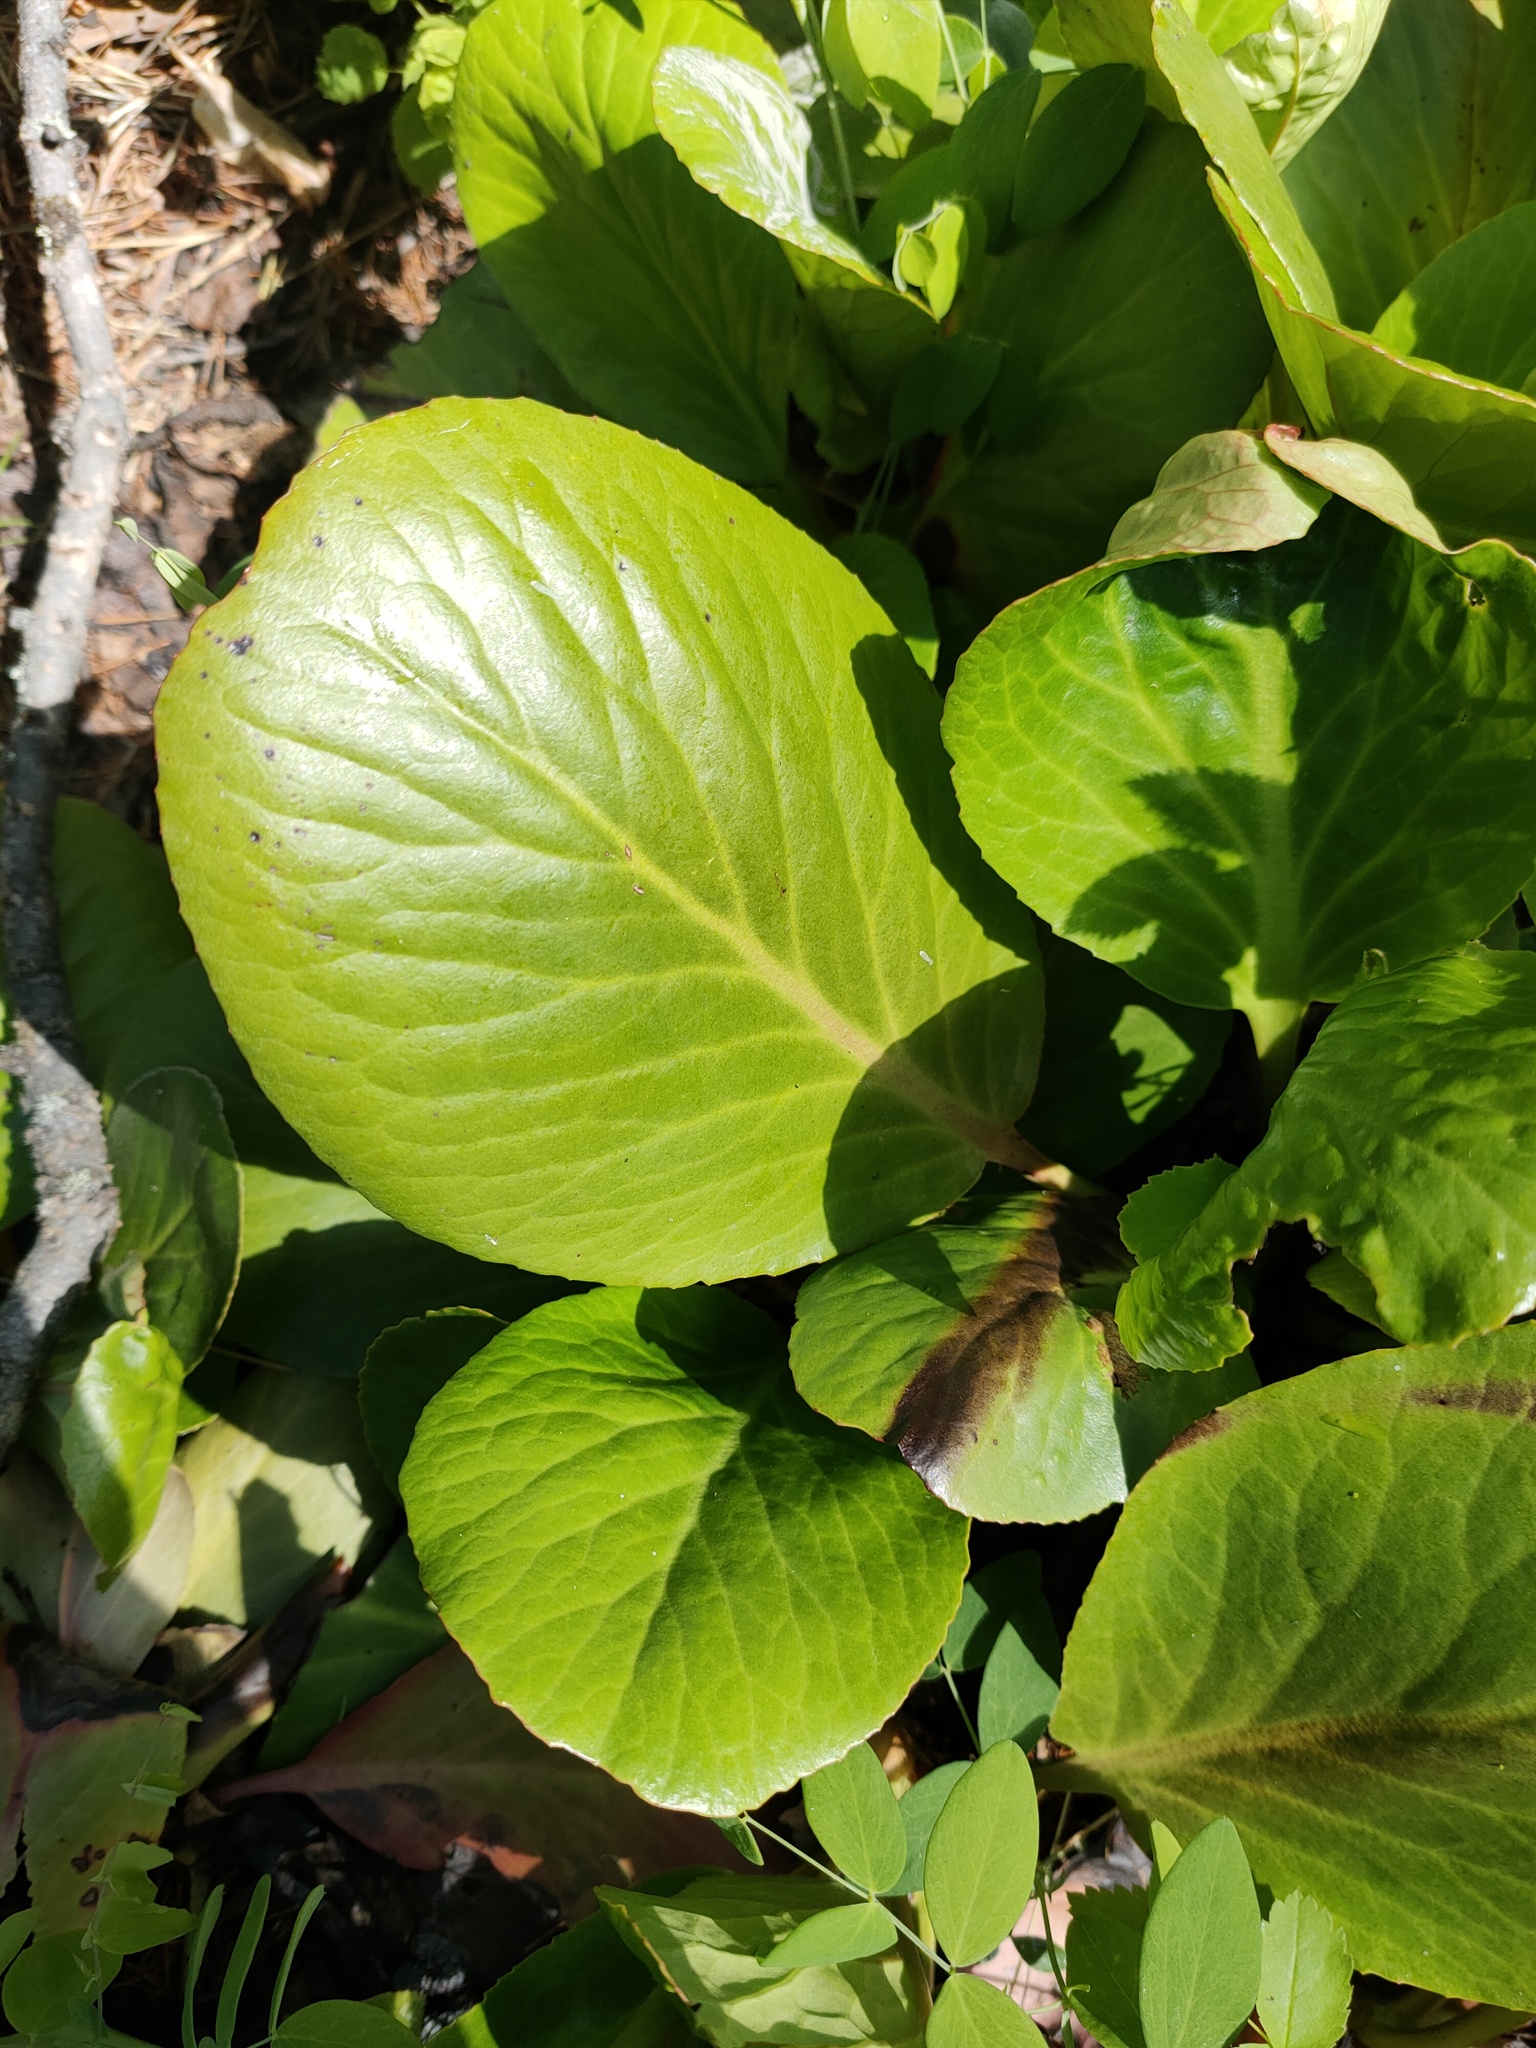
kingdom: Plantae
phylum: Tracheophyta
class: Magnoliopsida
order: Saxifragales
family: Saxifragaceae
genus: Bergenia
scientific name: Bergenia crassifolia
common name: Elephant-ears
